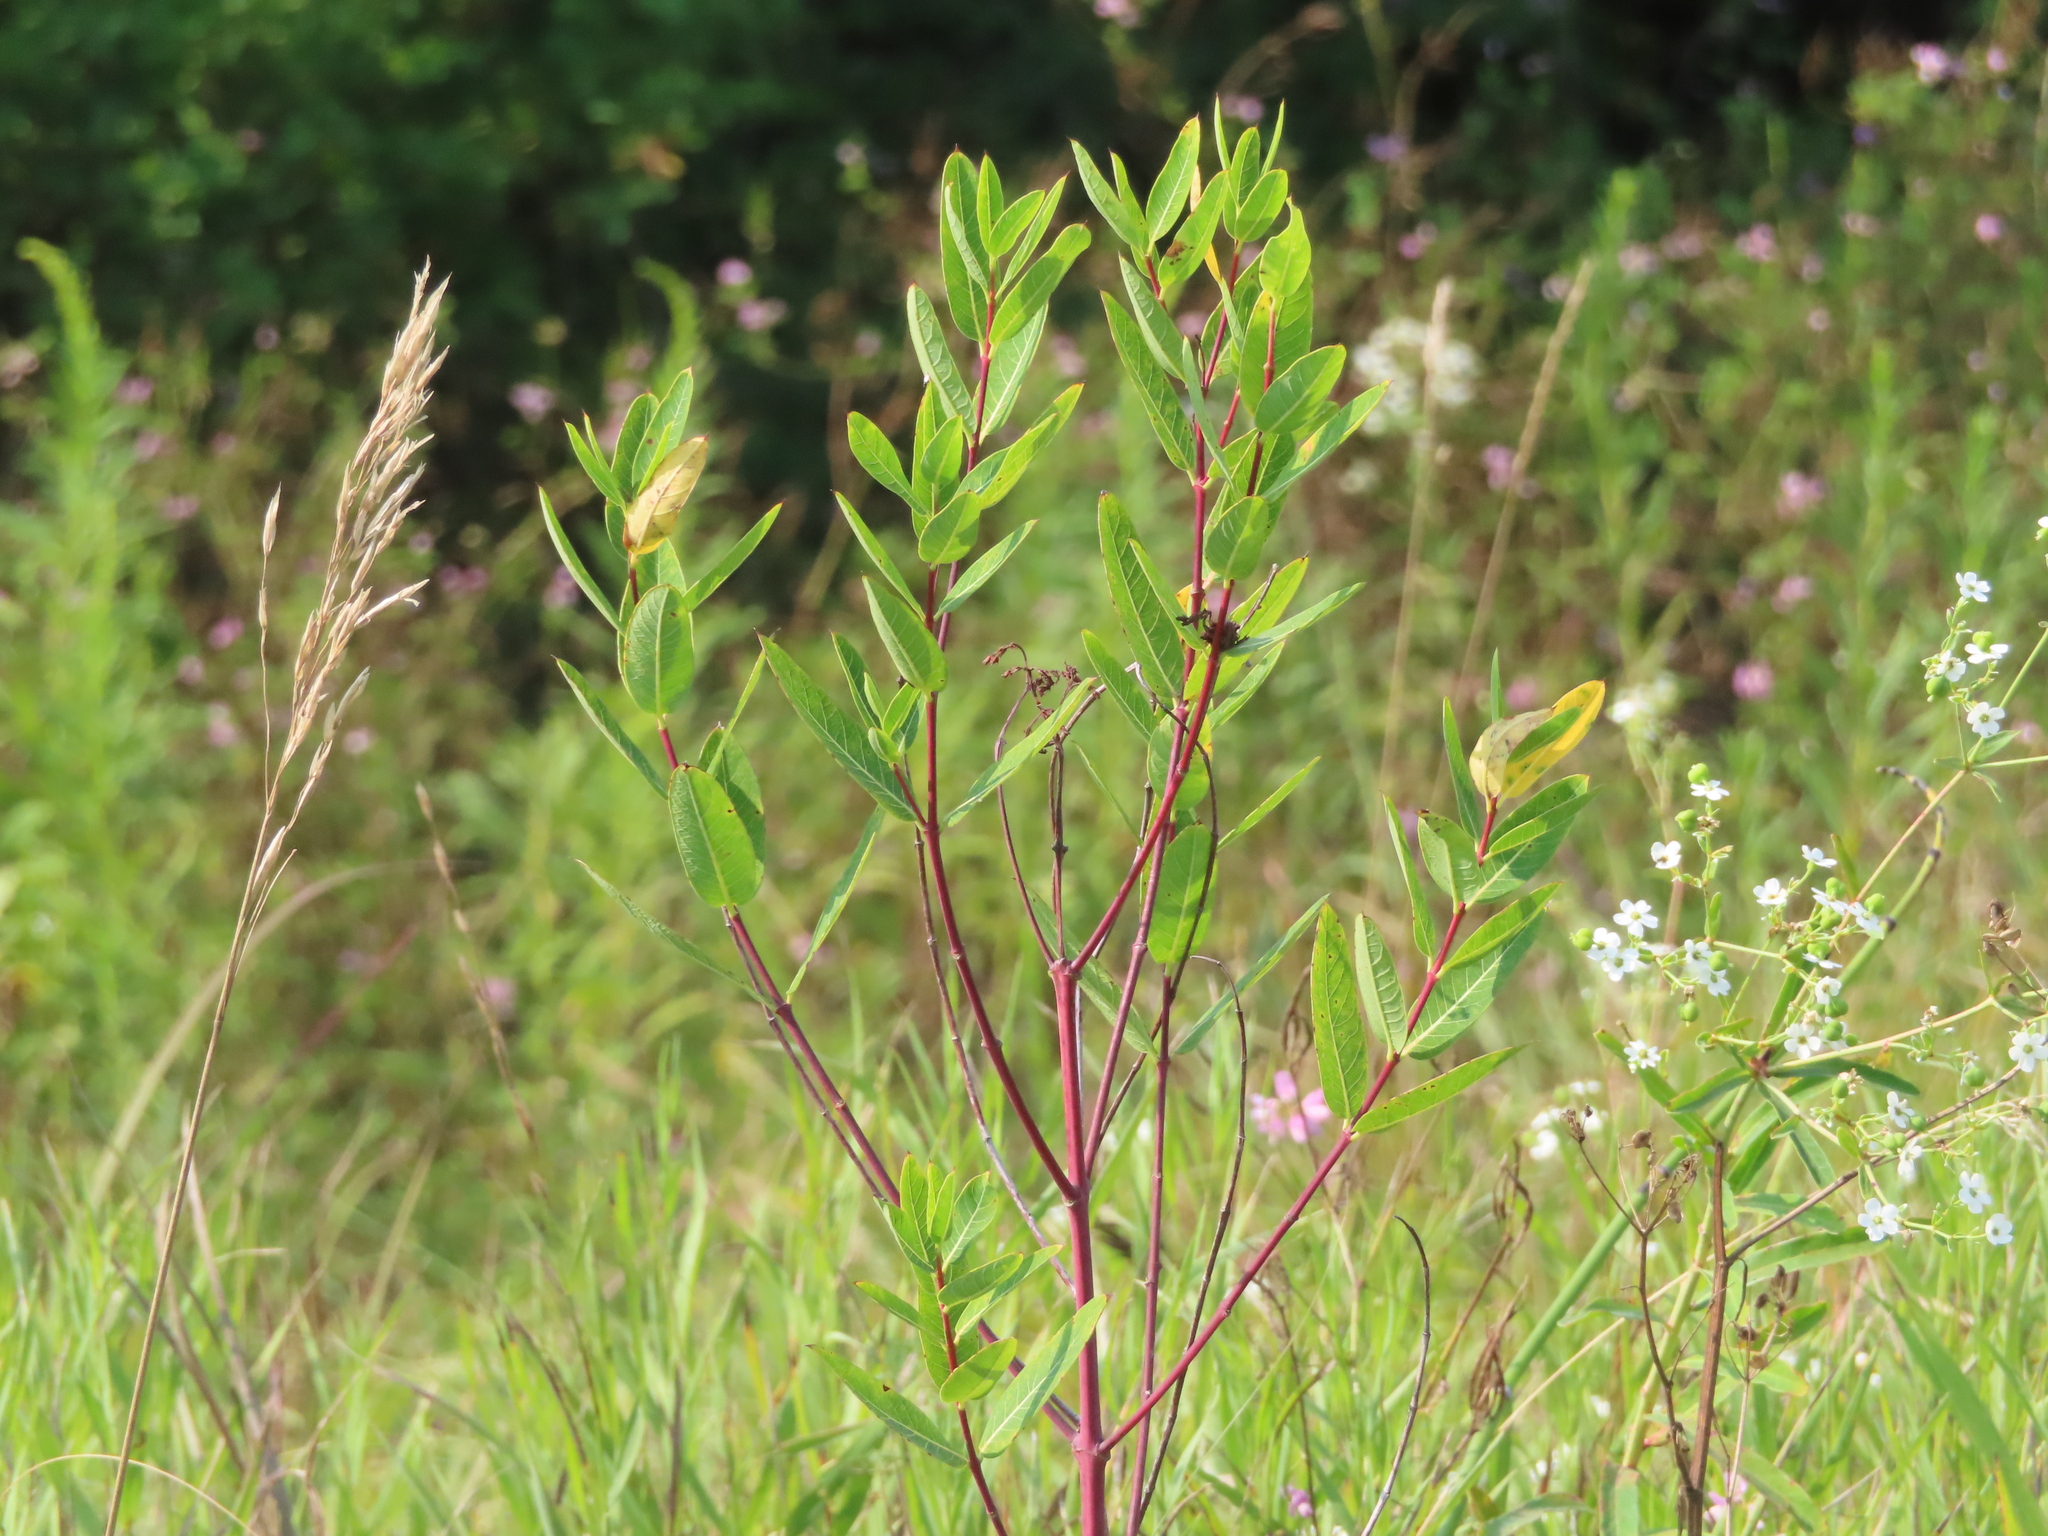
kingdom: Plantae
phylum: Tracheophyta
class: Magnoliopsida
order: Gentianales
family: Apocynaceae
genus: Apocynum
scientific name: Apocynum cannabinum
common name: Hemp dogbane
